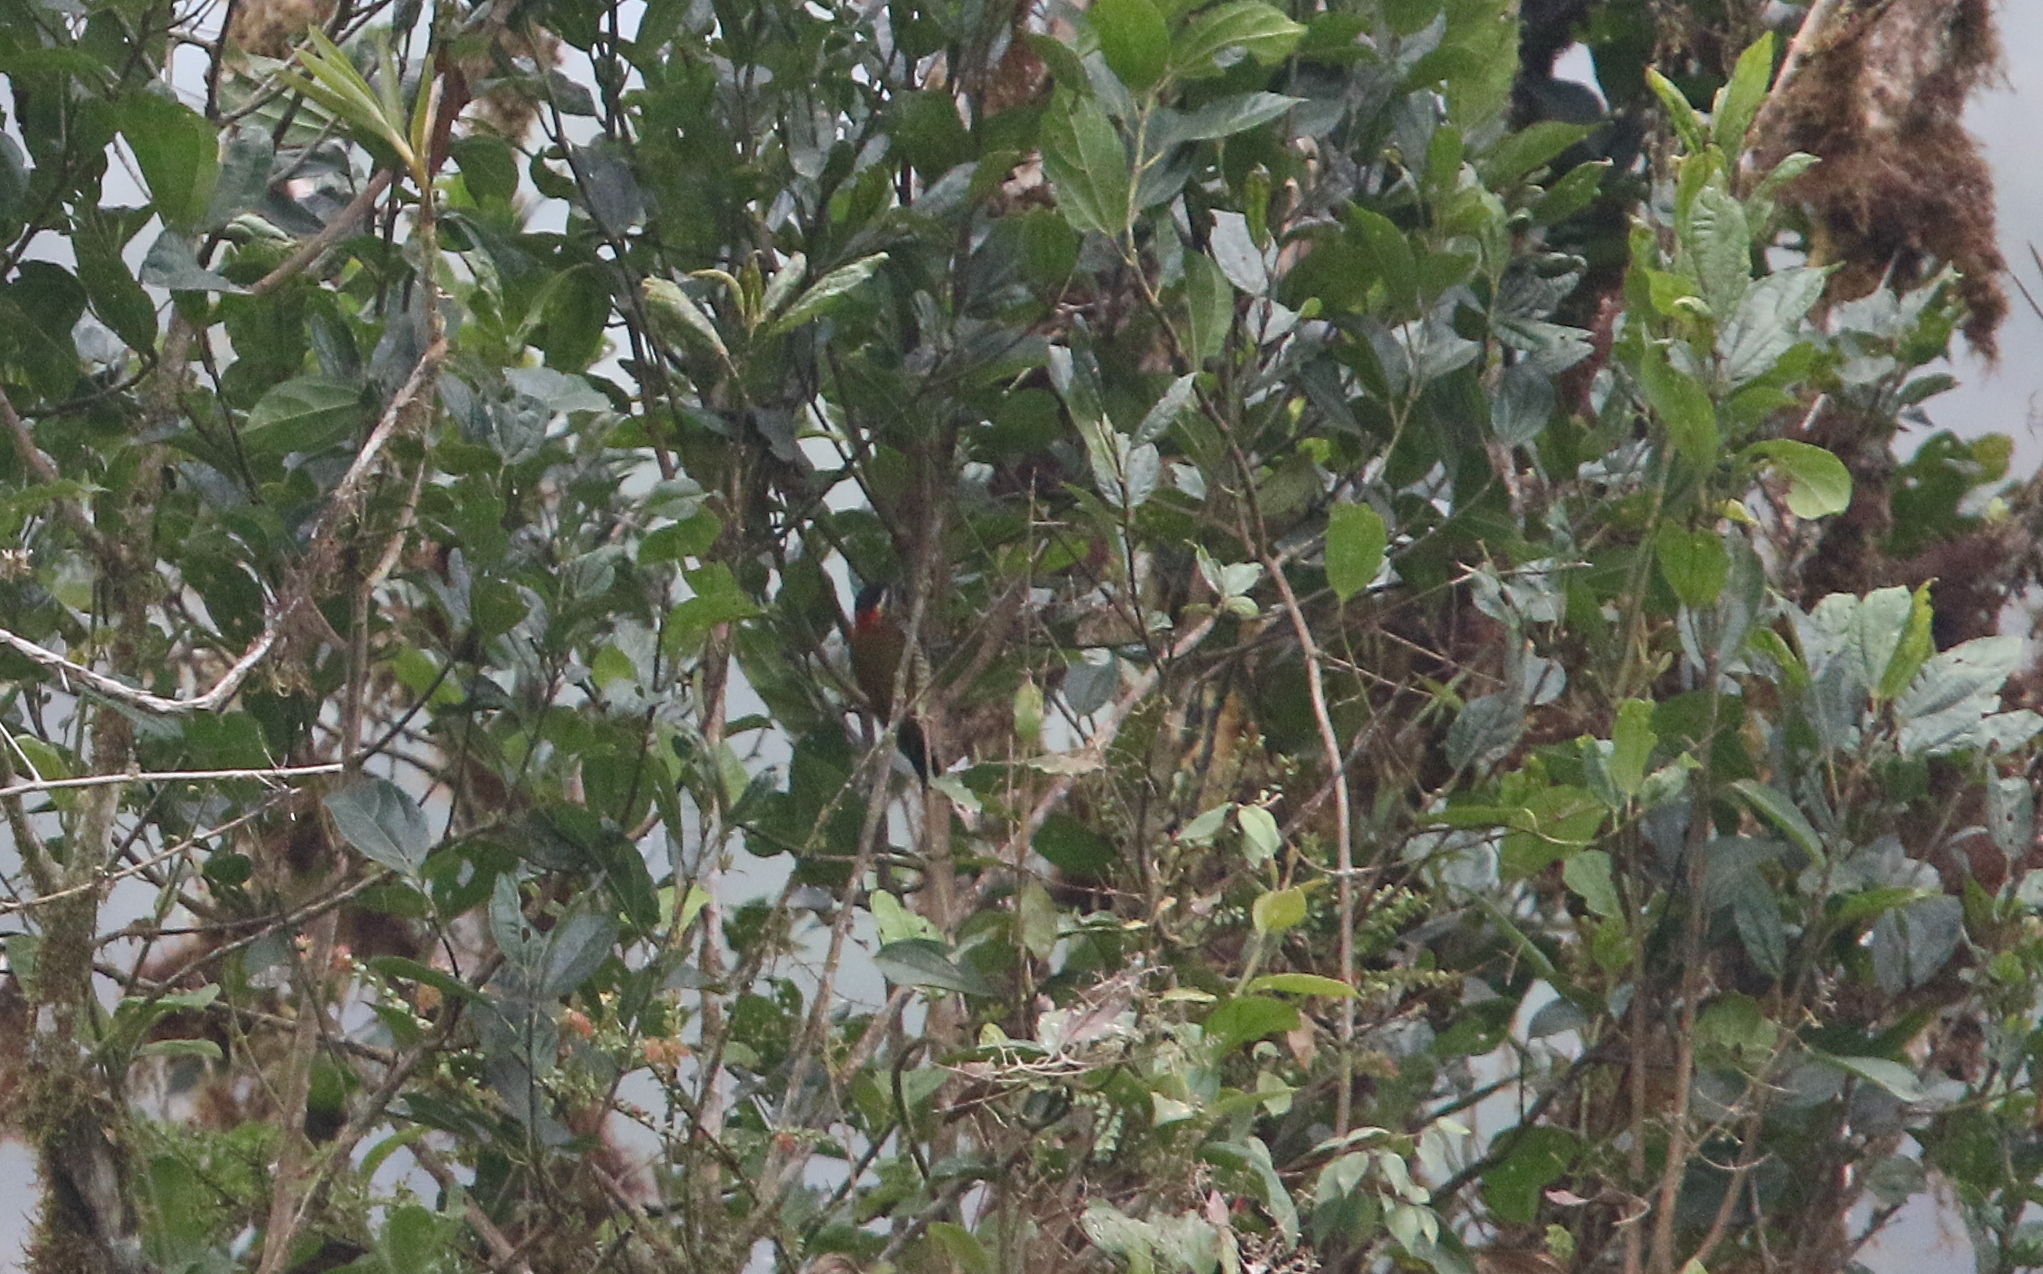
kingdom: Animalia
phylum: Chordata
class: Aves
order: Piciformes
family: Picidae
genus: Veniliornis
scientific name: Veniliornis dignus
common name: Yellow-vented woodpecker
